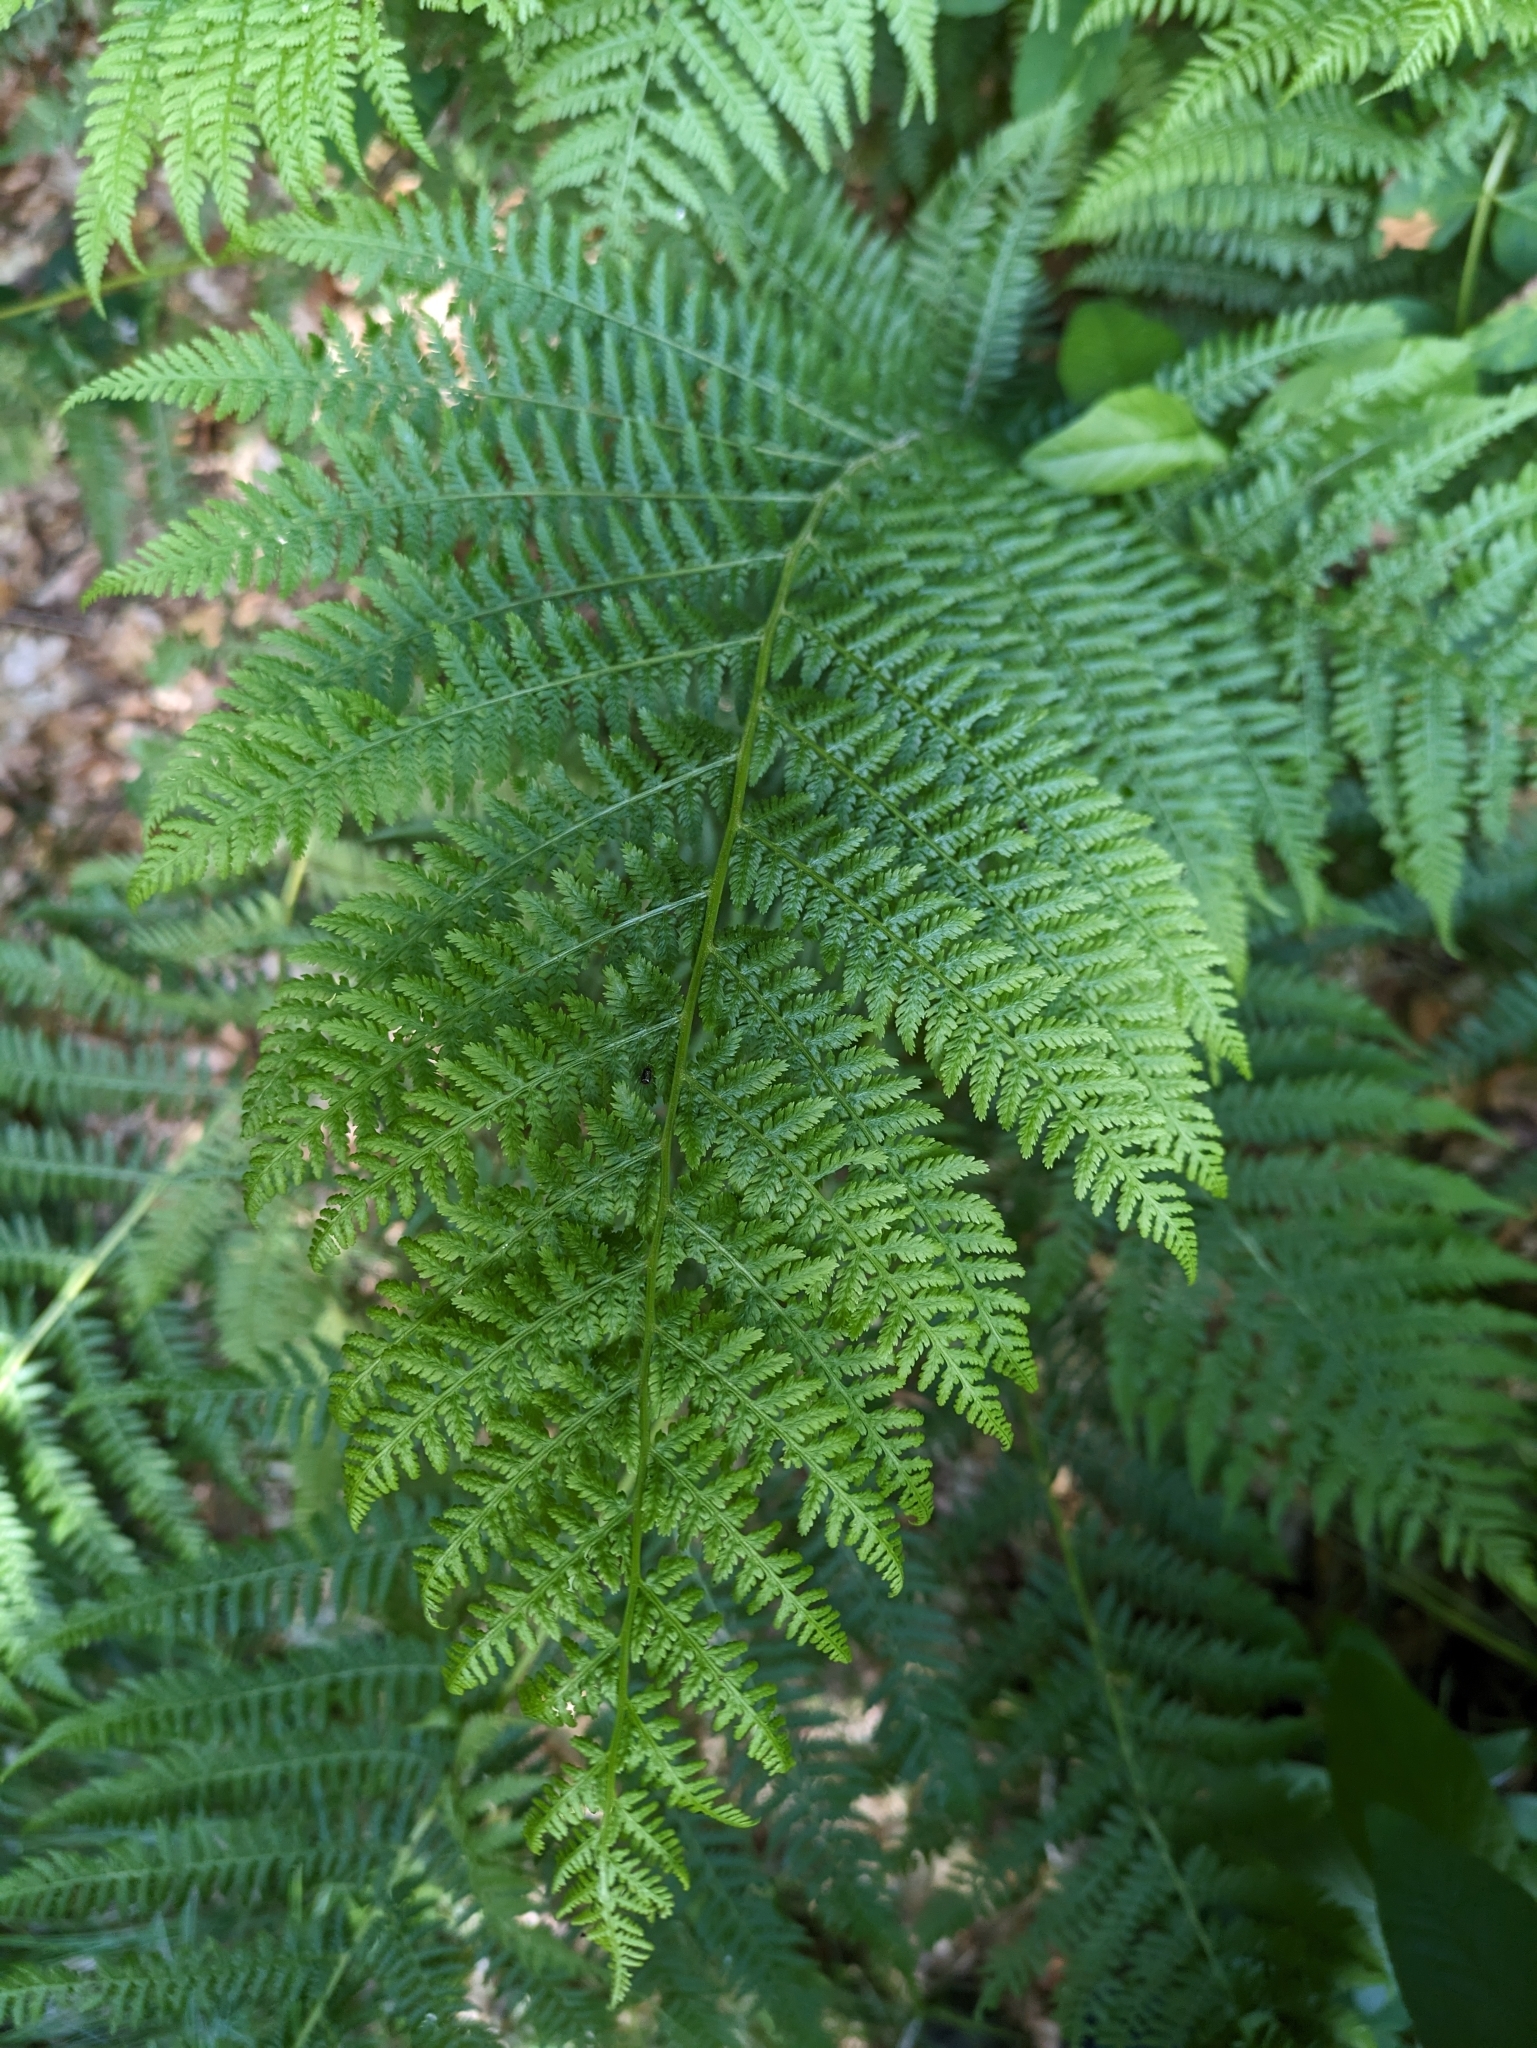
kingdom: Plantae
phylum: Tracheophyta
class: Polypodiopsida
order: Polypodiales
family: Athyriaceae
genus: Athyrium
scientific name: Athyrium filix-femina
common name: Lady fern
